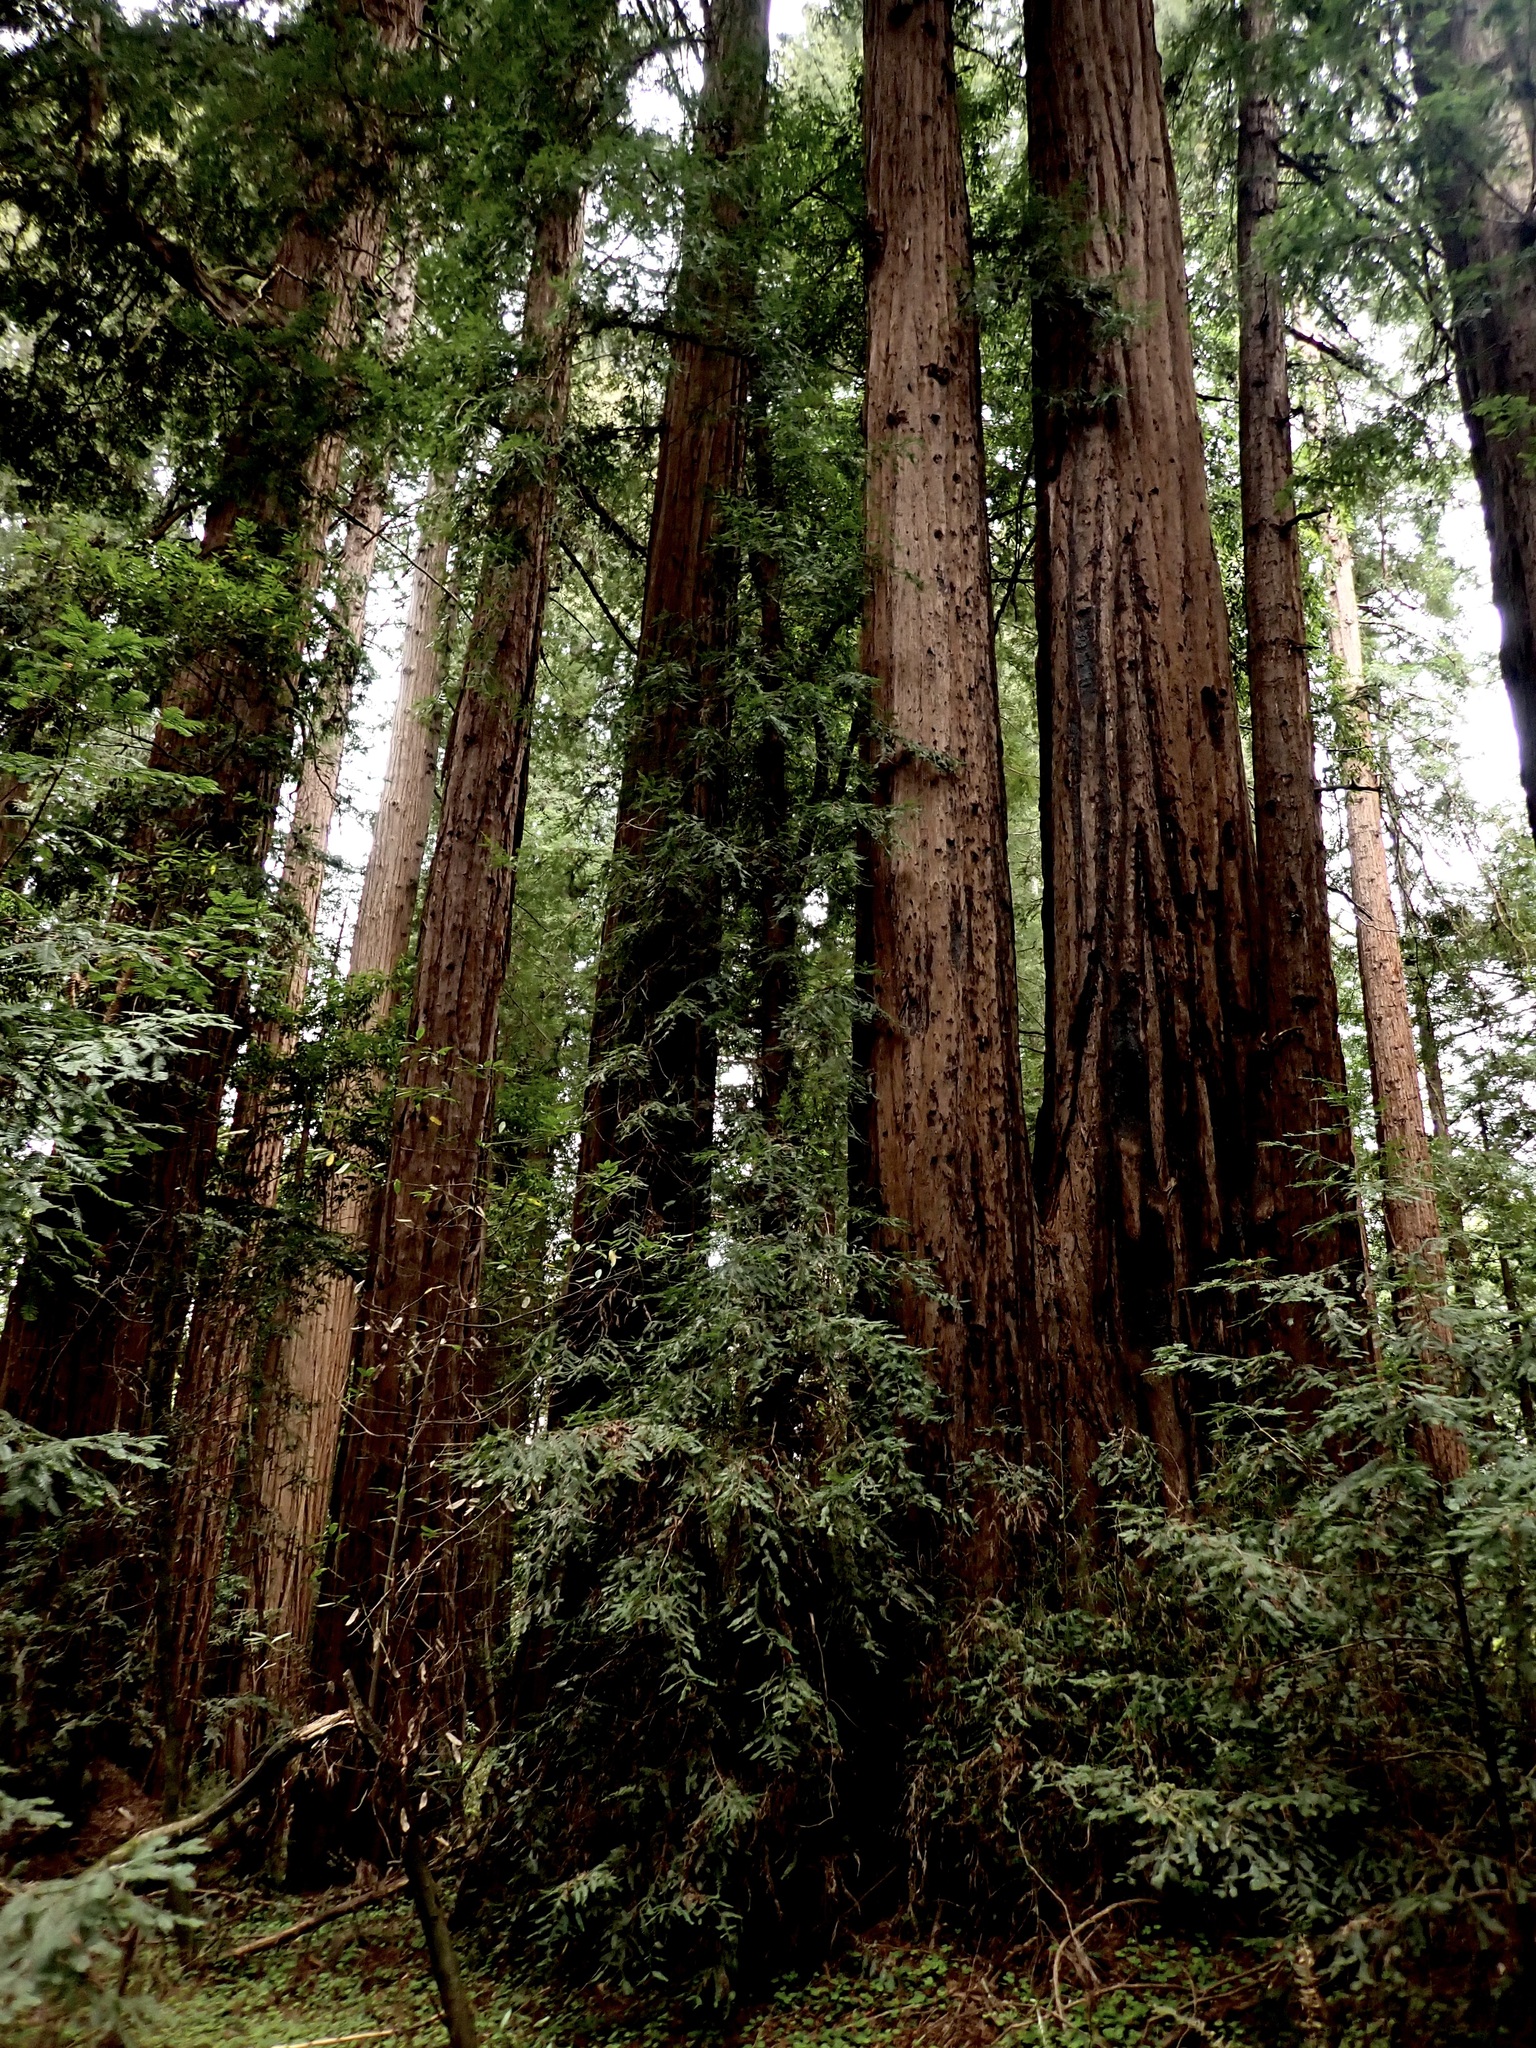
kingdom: Plantae
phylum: Tracheophyta
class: Pinopsida
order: Pinales
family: Cupressaceae
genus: Sequoia
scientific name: Sequoia sempervirens
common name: Coast redwood
